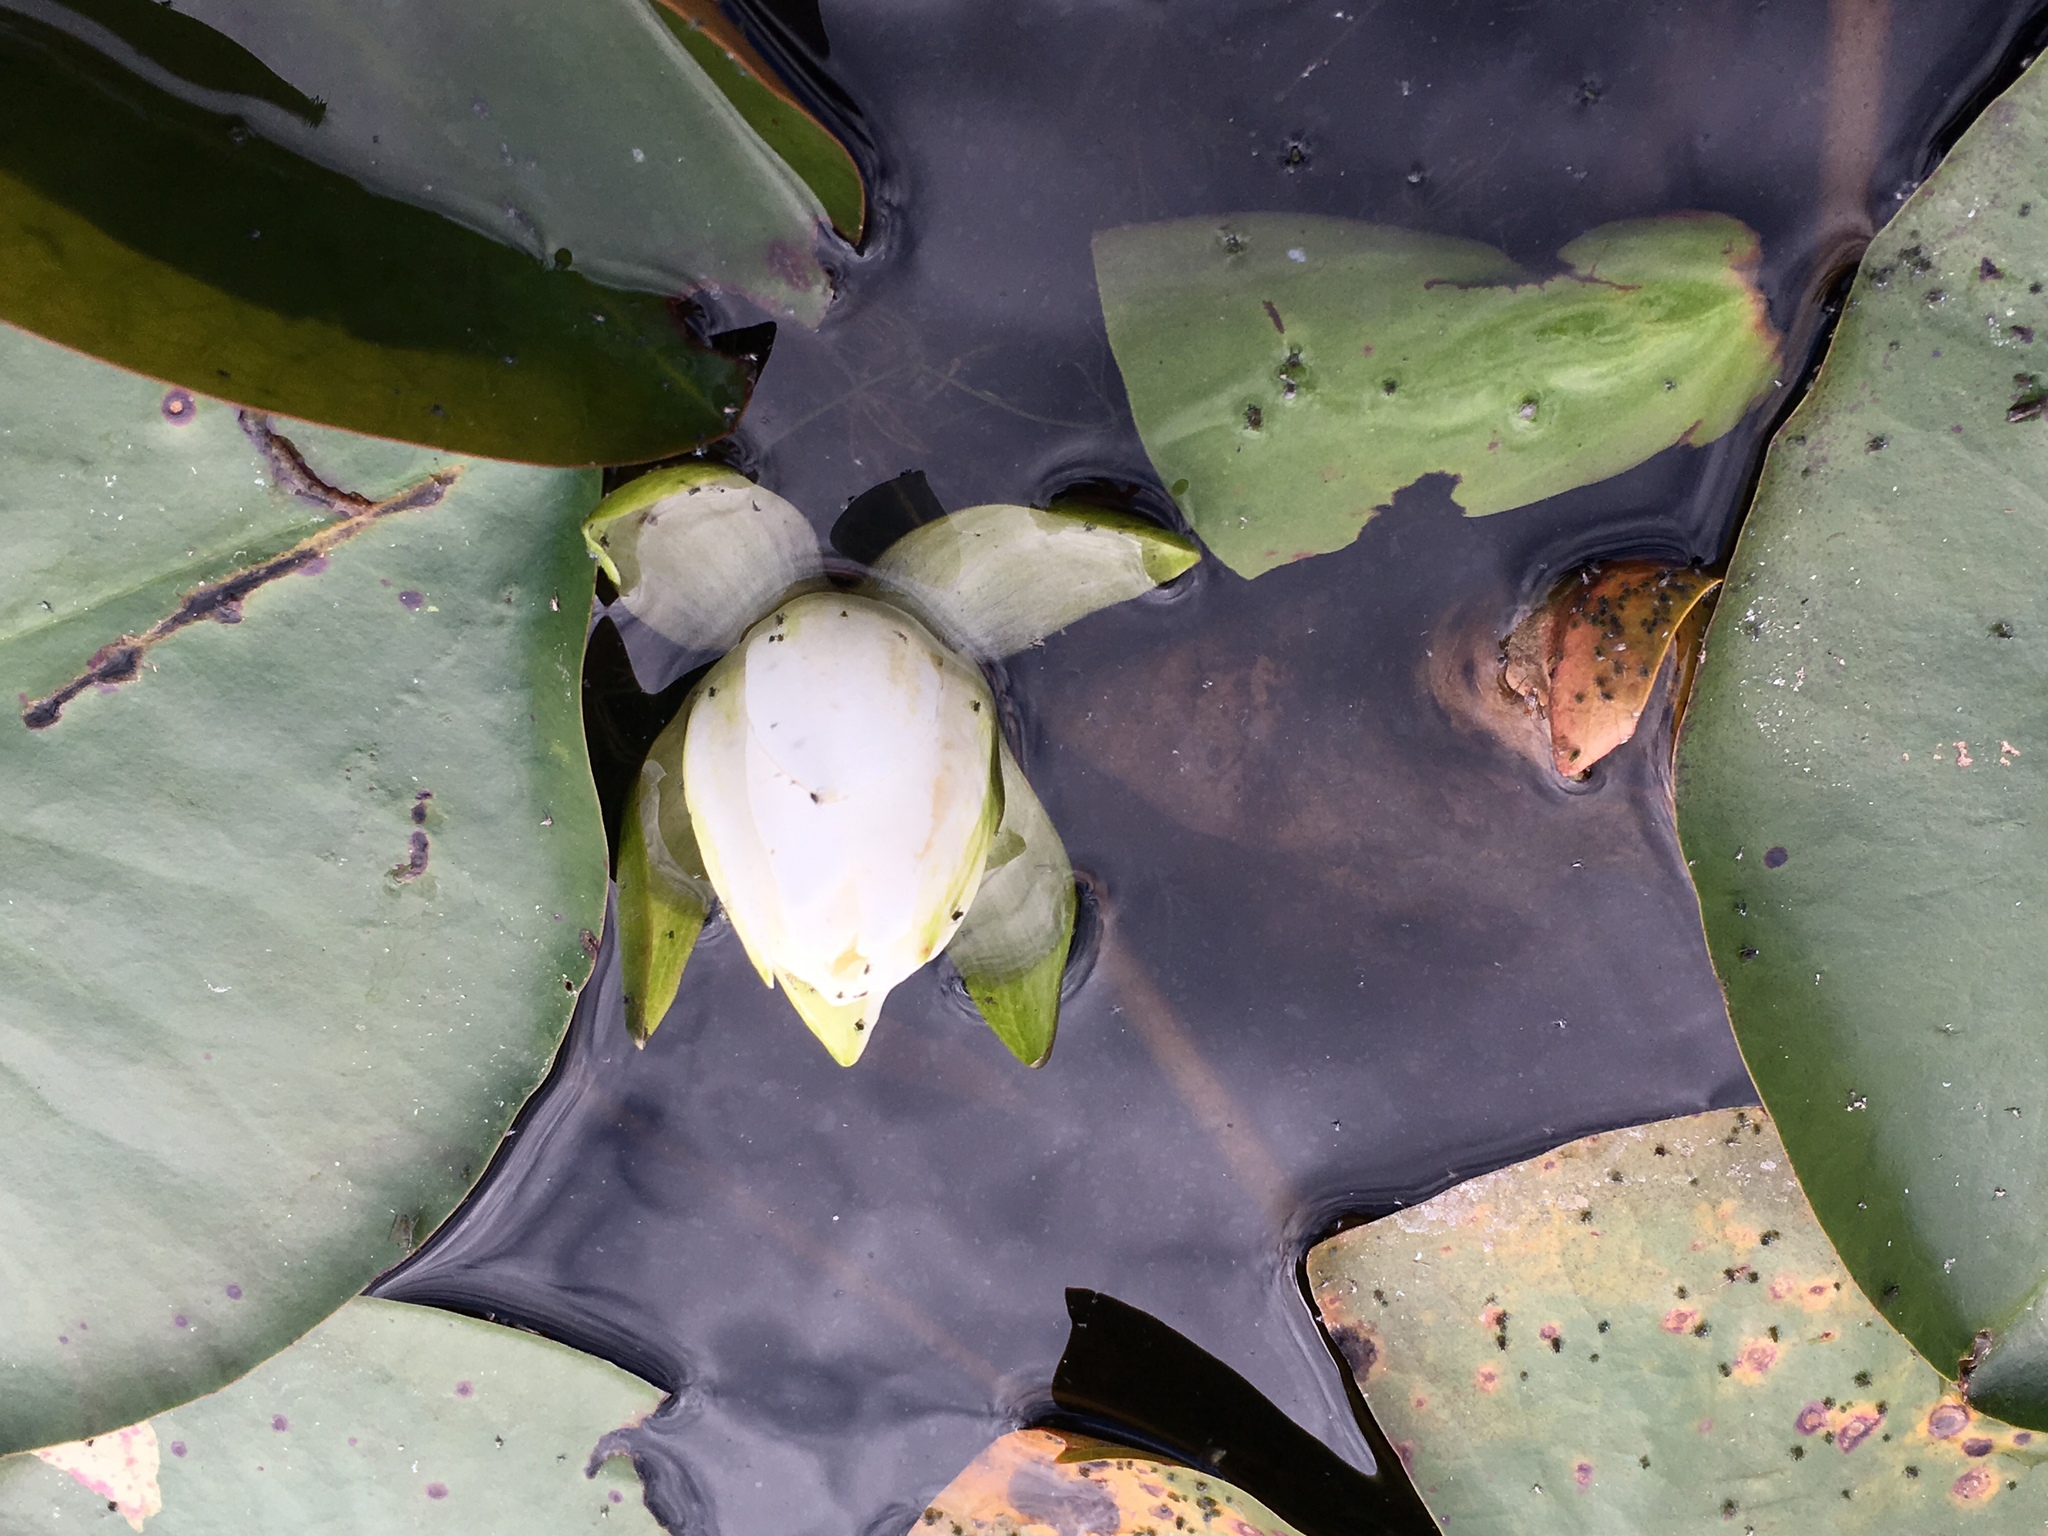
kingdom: Plantae
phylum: Tracheophyta
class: Magnoliopsida
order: Nymphaeales
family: Nymphaeaceae
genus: Nymphaea
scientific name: Nymphaea odorata
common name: Fragrant water-lily
